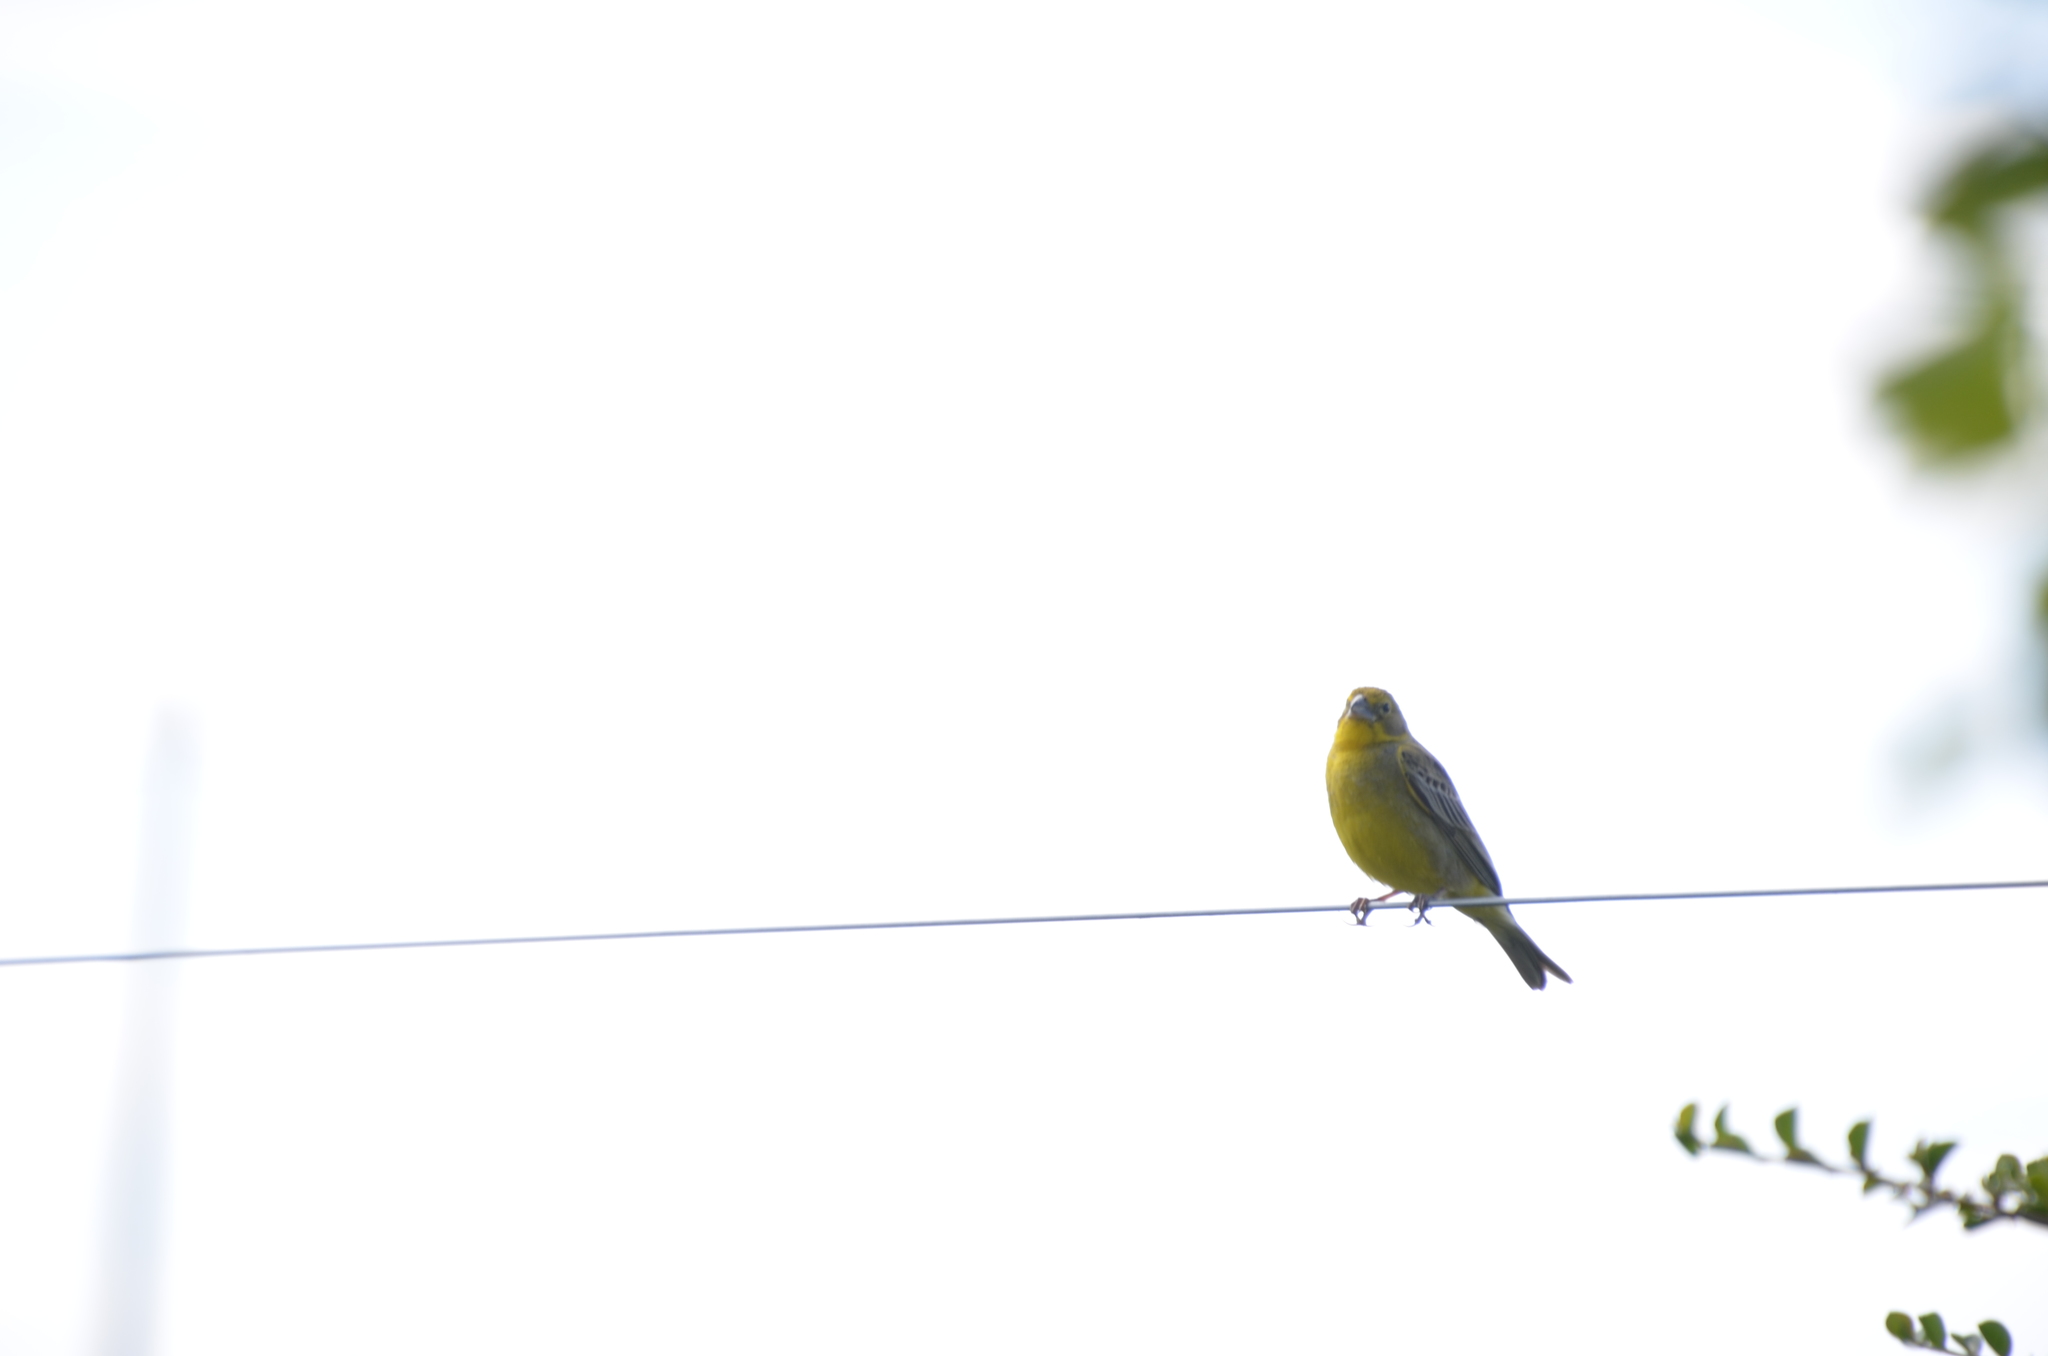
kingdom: Animalia
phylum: Chordata
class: Aves
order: Passeriformes
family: Thraupidae
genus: Sicalis
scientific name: Sicalis luteola
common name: Grassland yellow-finch
